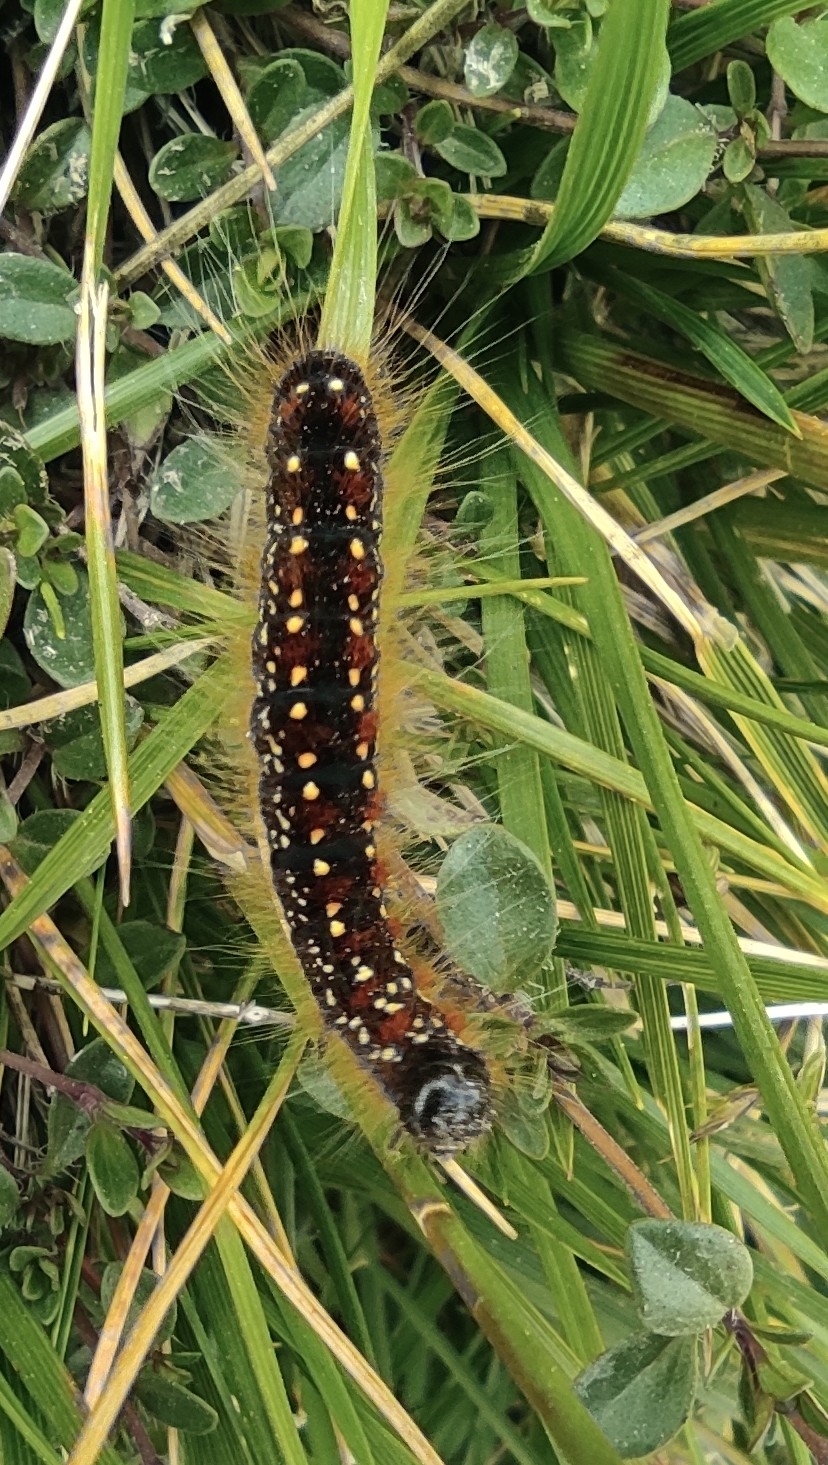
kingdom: Animalia
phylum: Arthropoda
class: Insecta
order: Lepidoptera
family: Lasiocampidae
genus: Eriogaster
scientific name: Eriogaster arbusculae
